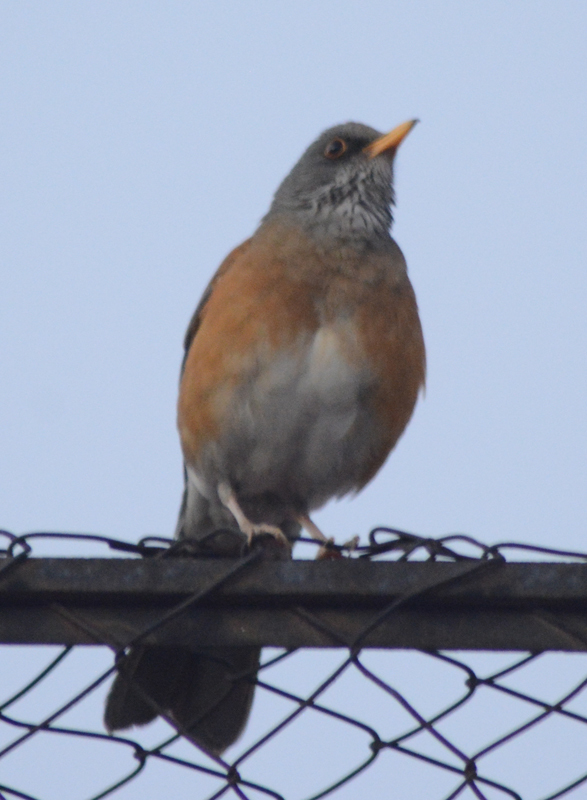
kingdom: Animalia
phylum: Chordata
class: Aves
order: Passeriformes
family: Turdidae
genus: Turdus
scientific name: Turdus rufopalliatus
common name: Rufous-backed robin
